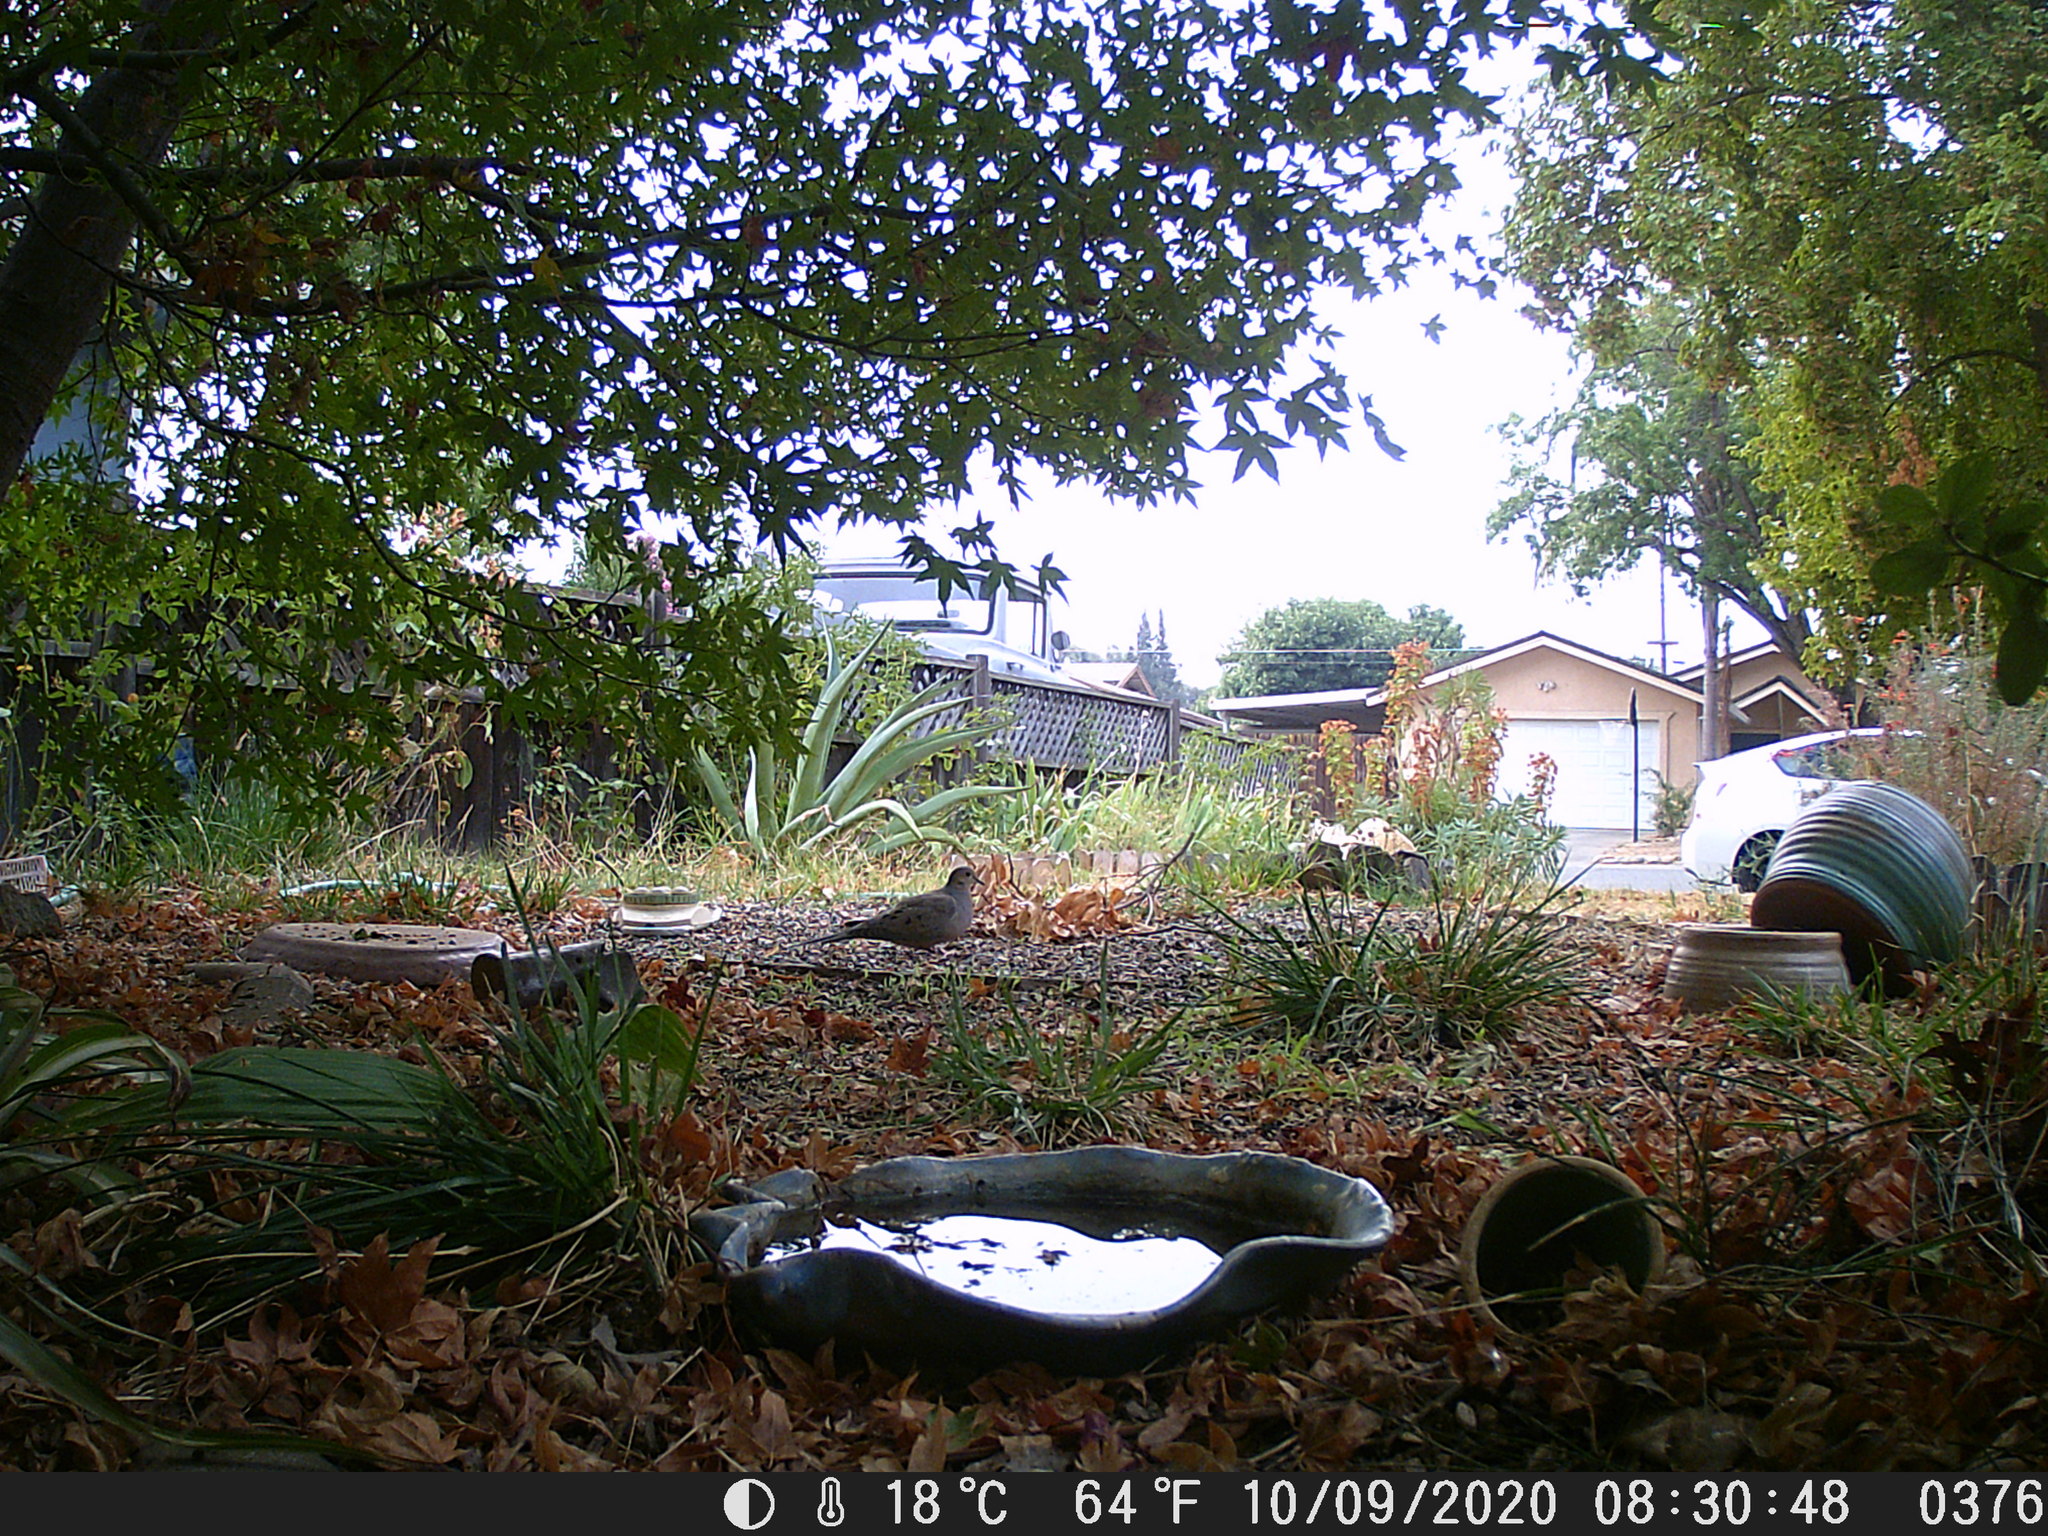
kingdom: Animalia
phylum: Chordata
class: Aves
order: Columbiformes
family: Columbidae
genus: Zenaida
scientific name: Zenaida macroura
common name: Mourning dove
